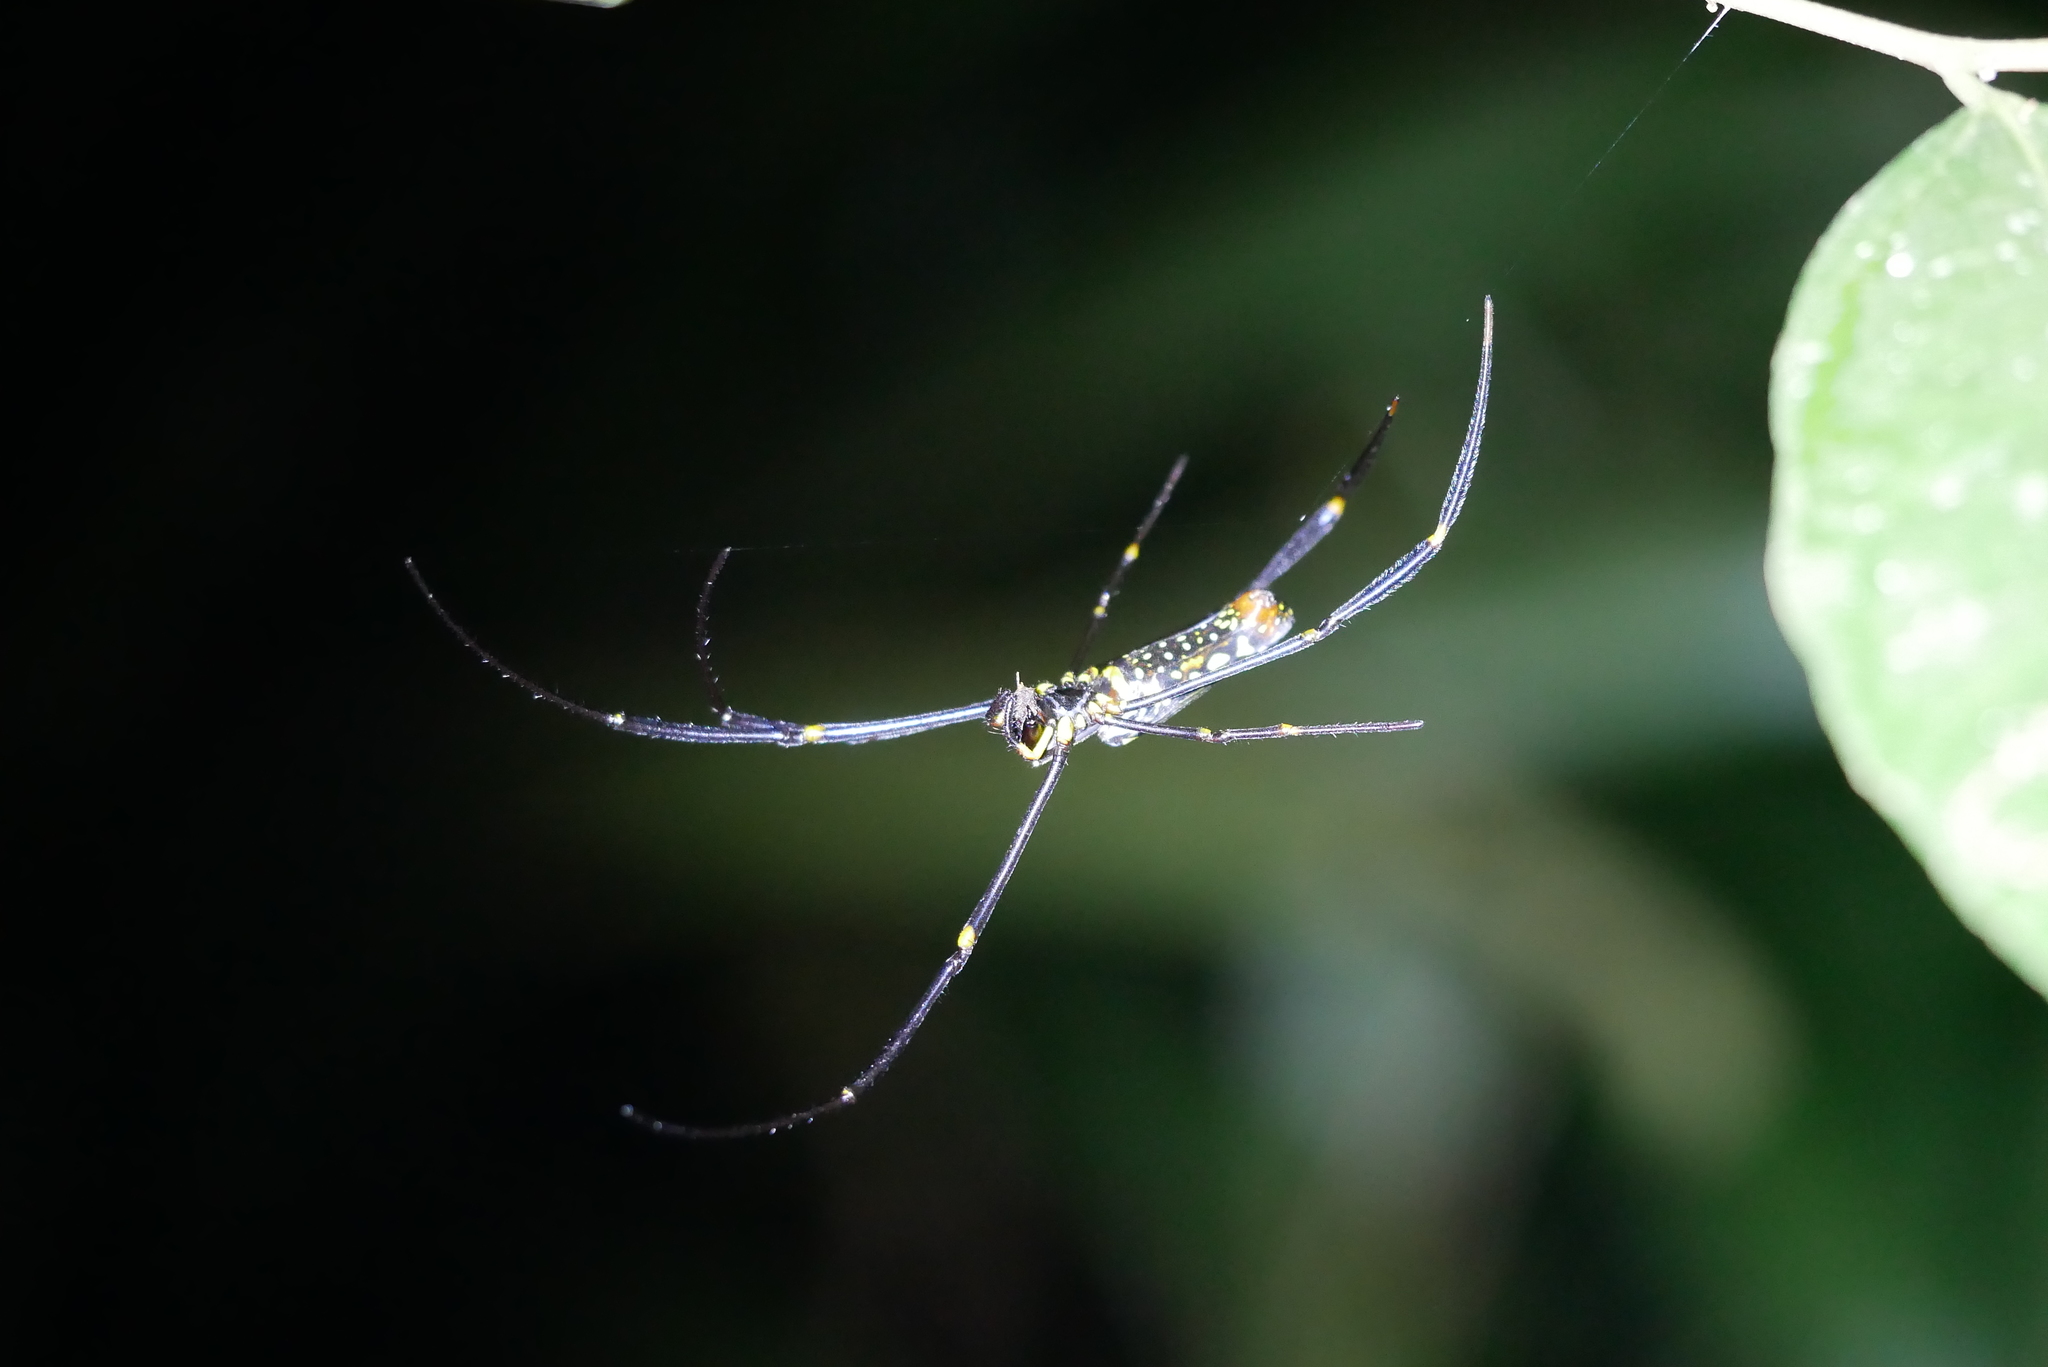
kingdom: Animalia
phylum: Arthropoda
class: Arachnida
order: Araneae
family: Araneidae
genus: Nephila
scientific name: Nephila pilipes
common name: Giant golden orb weaver
